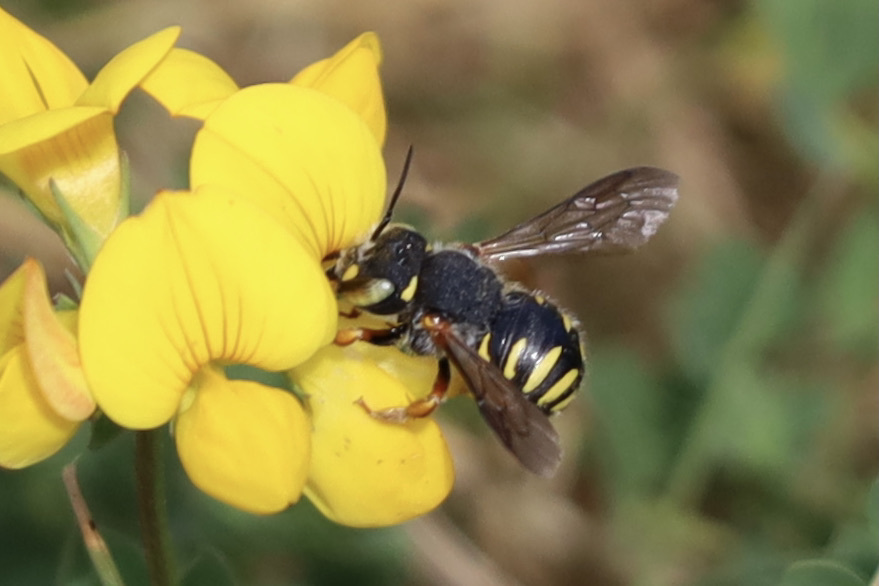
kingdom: Animalia
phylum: Arthropoda
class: Insecta
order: Hymenoptera
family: Megachilidae
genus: Anthidium
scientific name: Anthidium oblongatum
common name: Oblong wool carder bee
